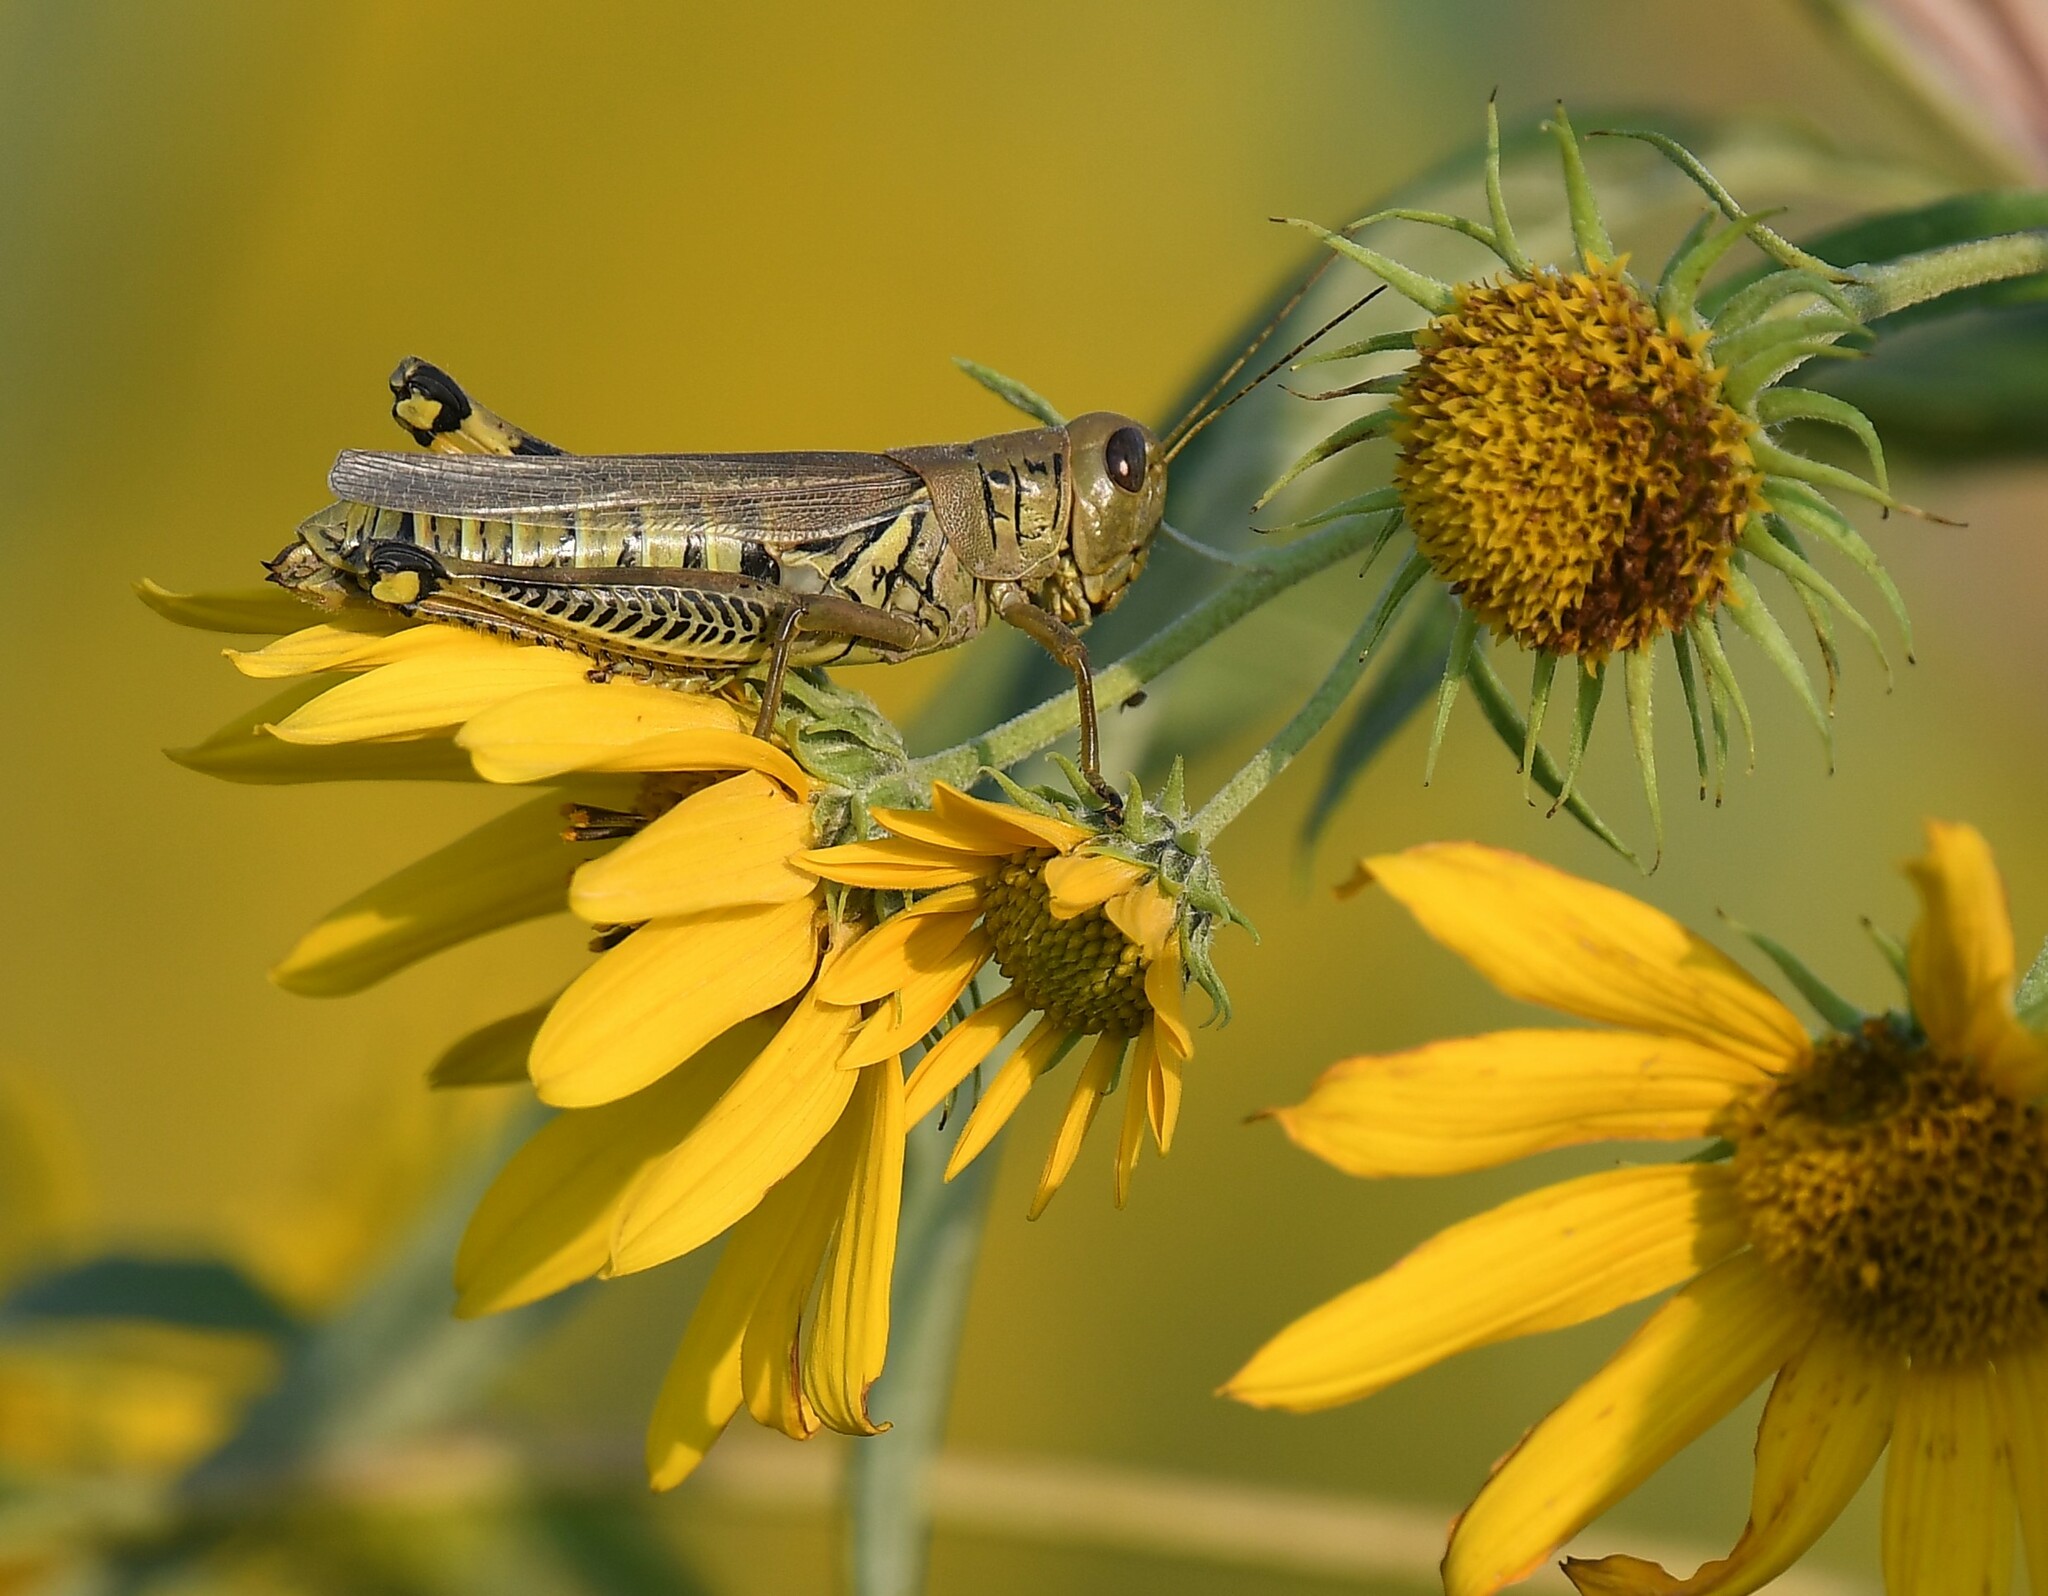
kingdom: Animalia
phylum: Arthropoda
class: Insecta
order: Orthoptera
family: Acrididae
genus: Melanoplus
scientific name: Melanoplus differentialis
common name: Differential grasshopper
